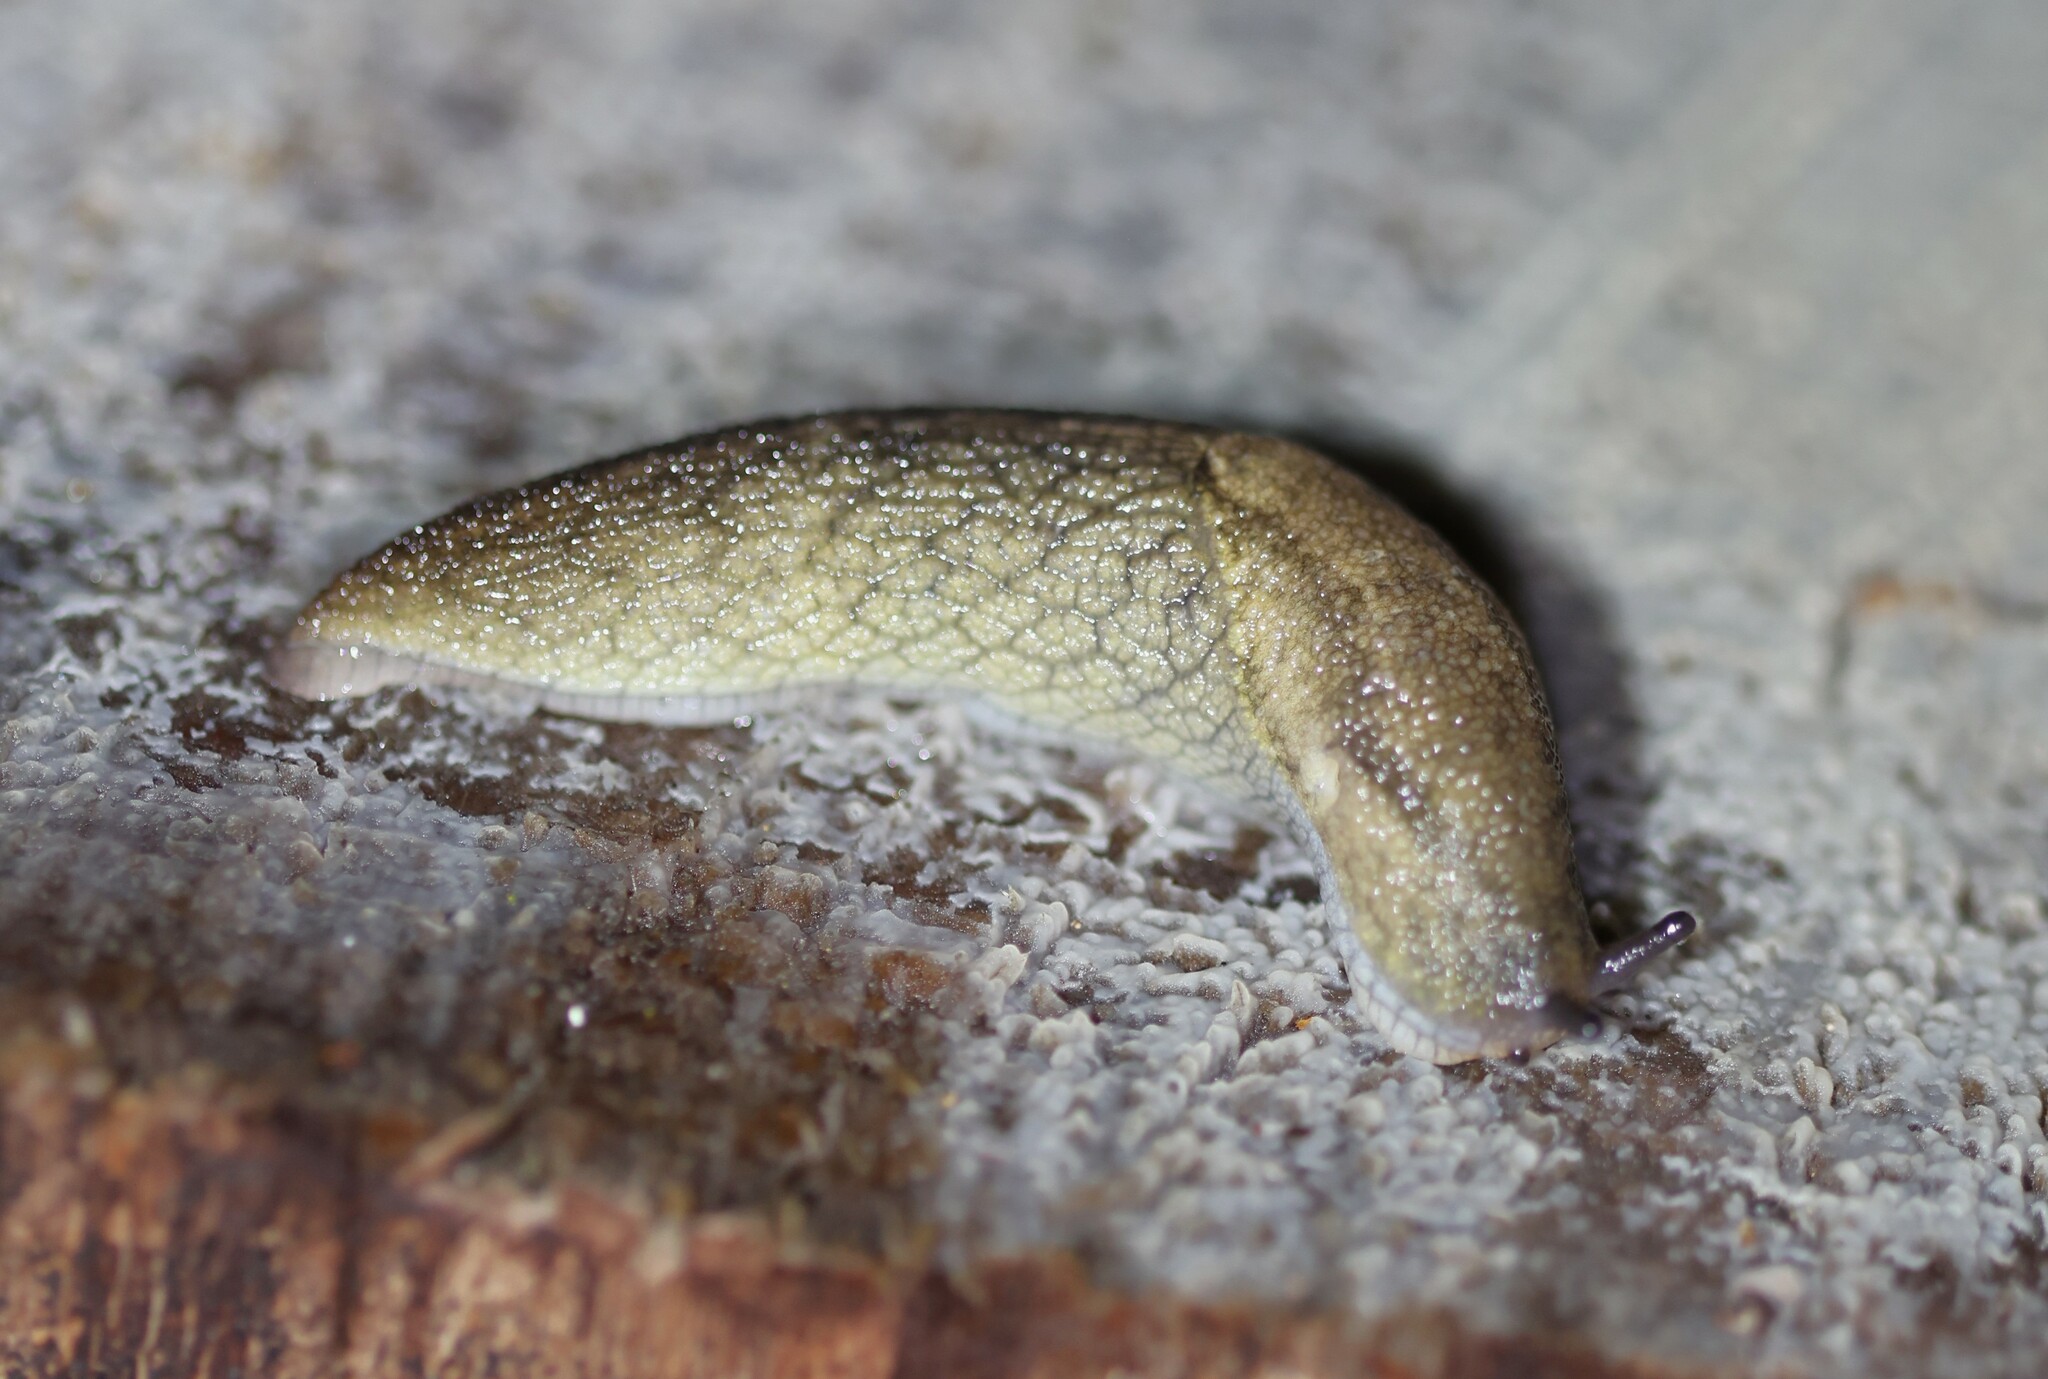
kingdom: Animalia
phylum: Mollusca
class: Gastropoda
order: Stylommatophora
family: Ariolimacidae
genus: Prophysaon
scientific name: Prophysaon andersonii
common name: Reticulate taildropper
